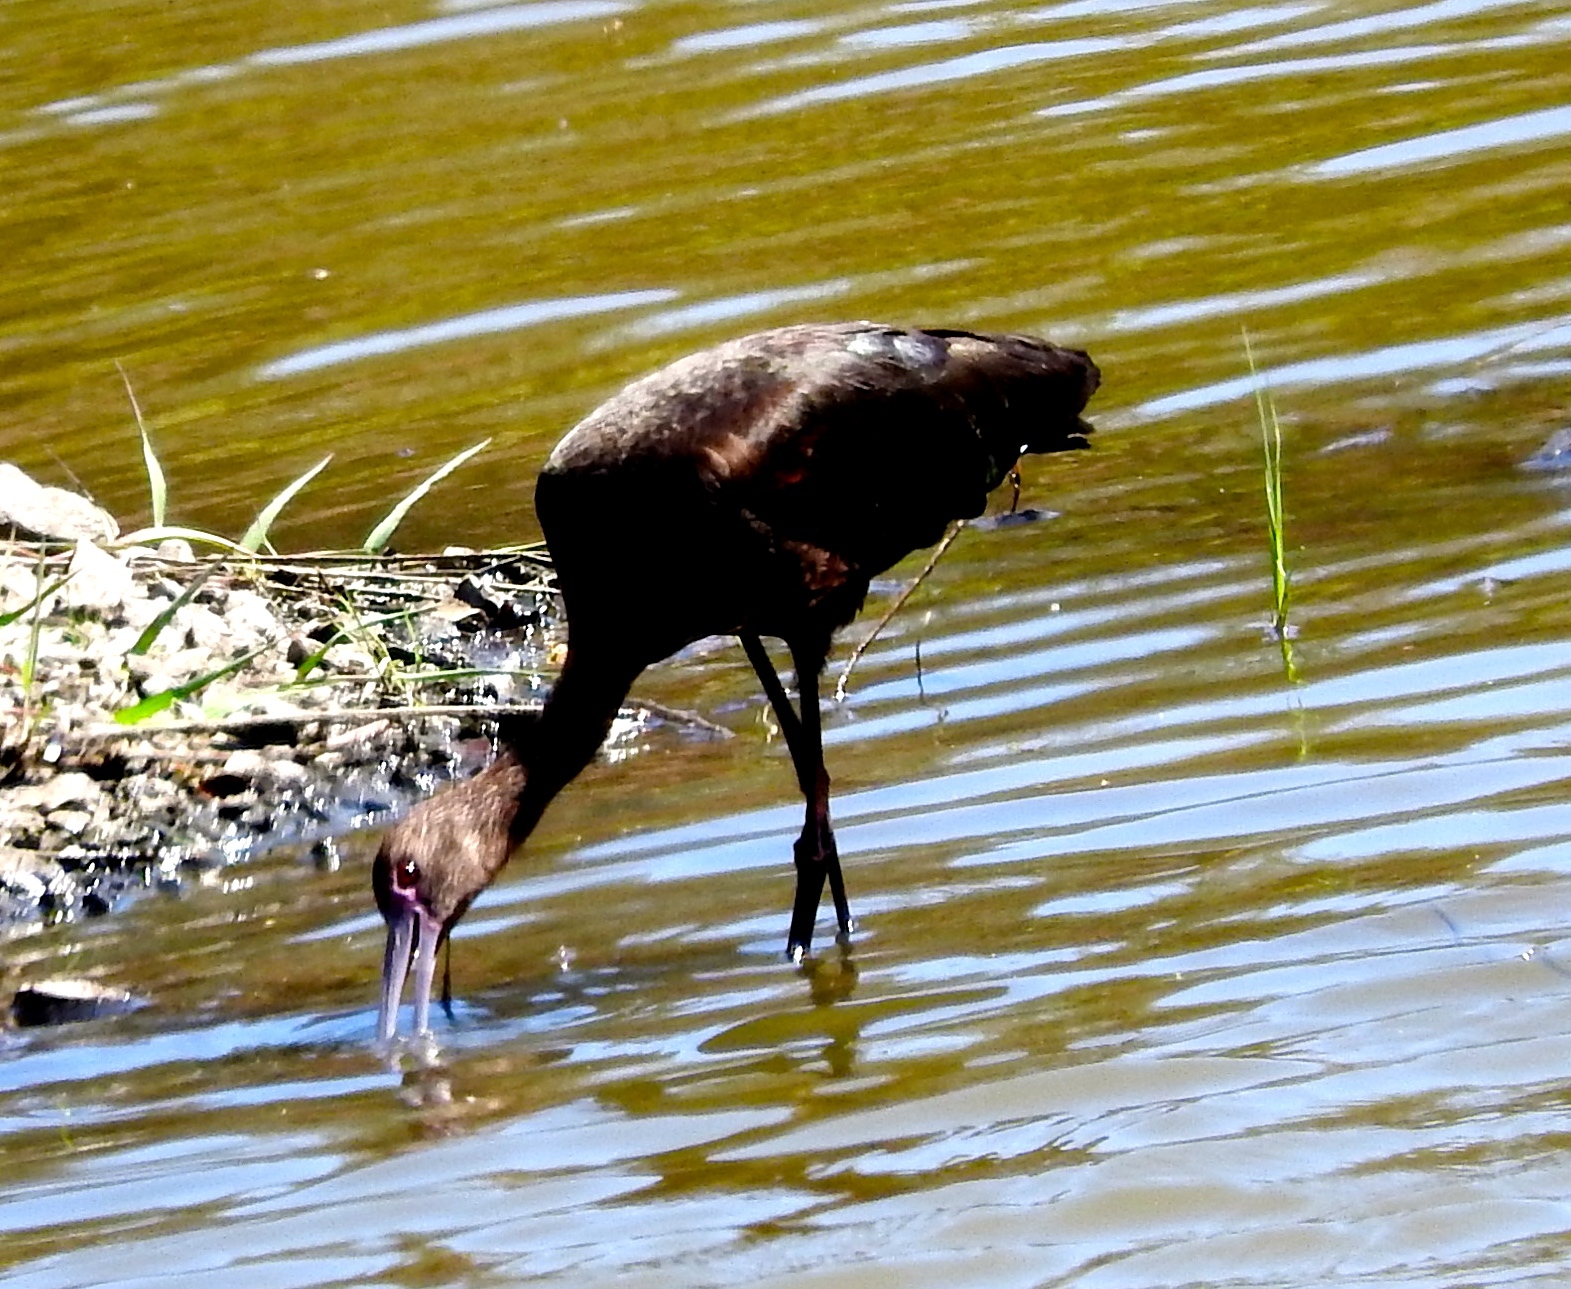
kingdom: Animalia
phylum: Chordata
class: Aves
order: Pelecaniformes
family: Threskiornithidae
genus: Plegadis
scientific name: Plegadis chihi
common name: White-faced ibis
